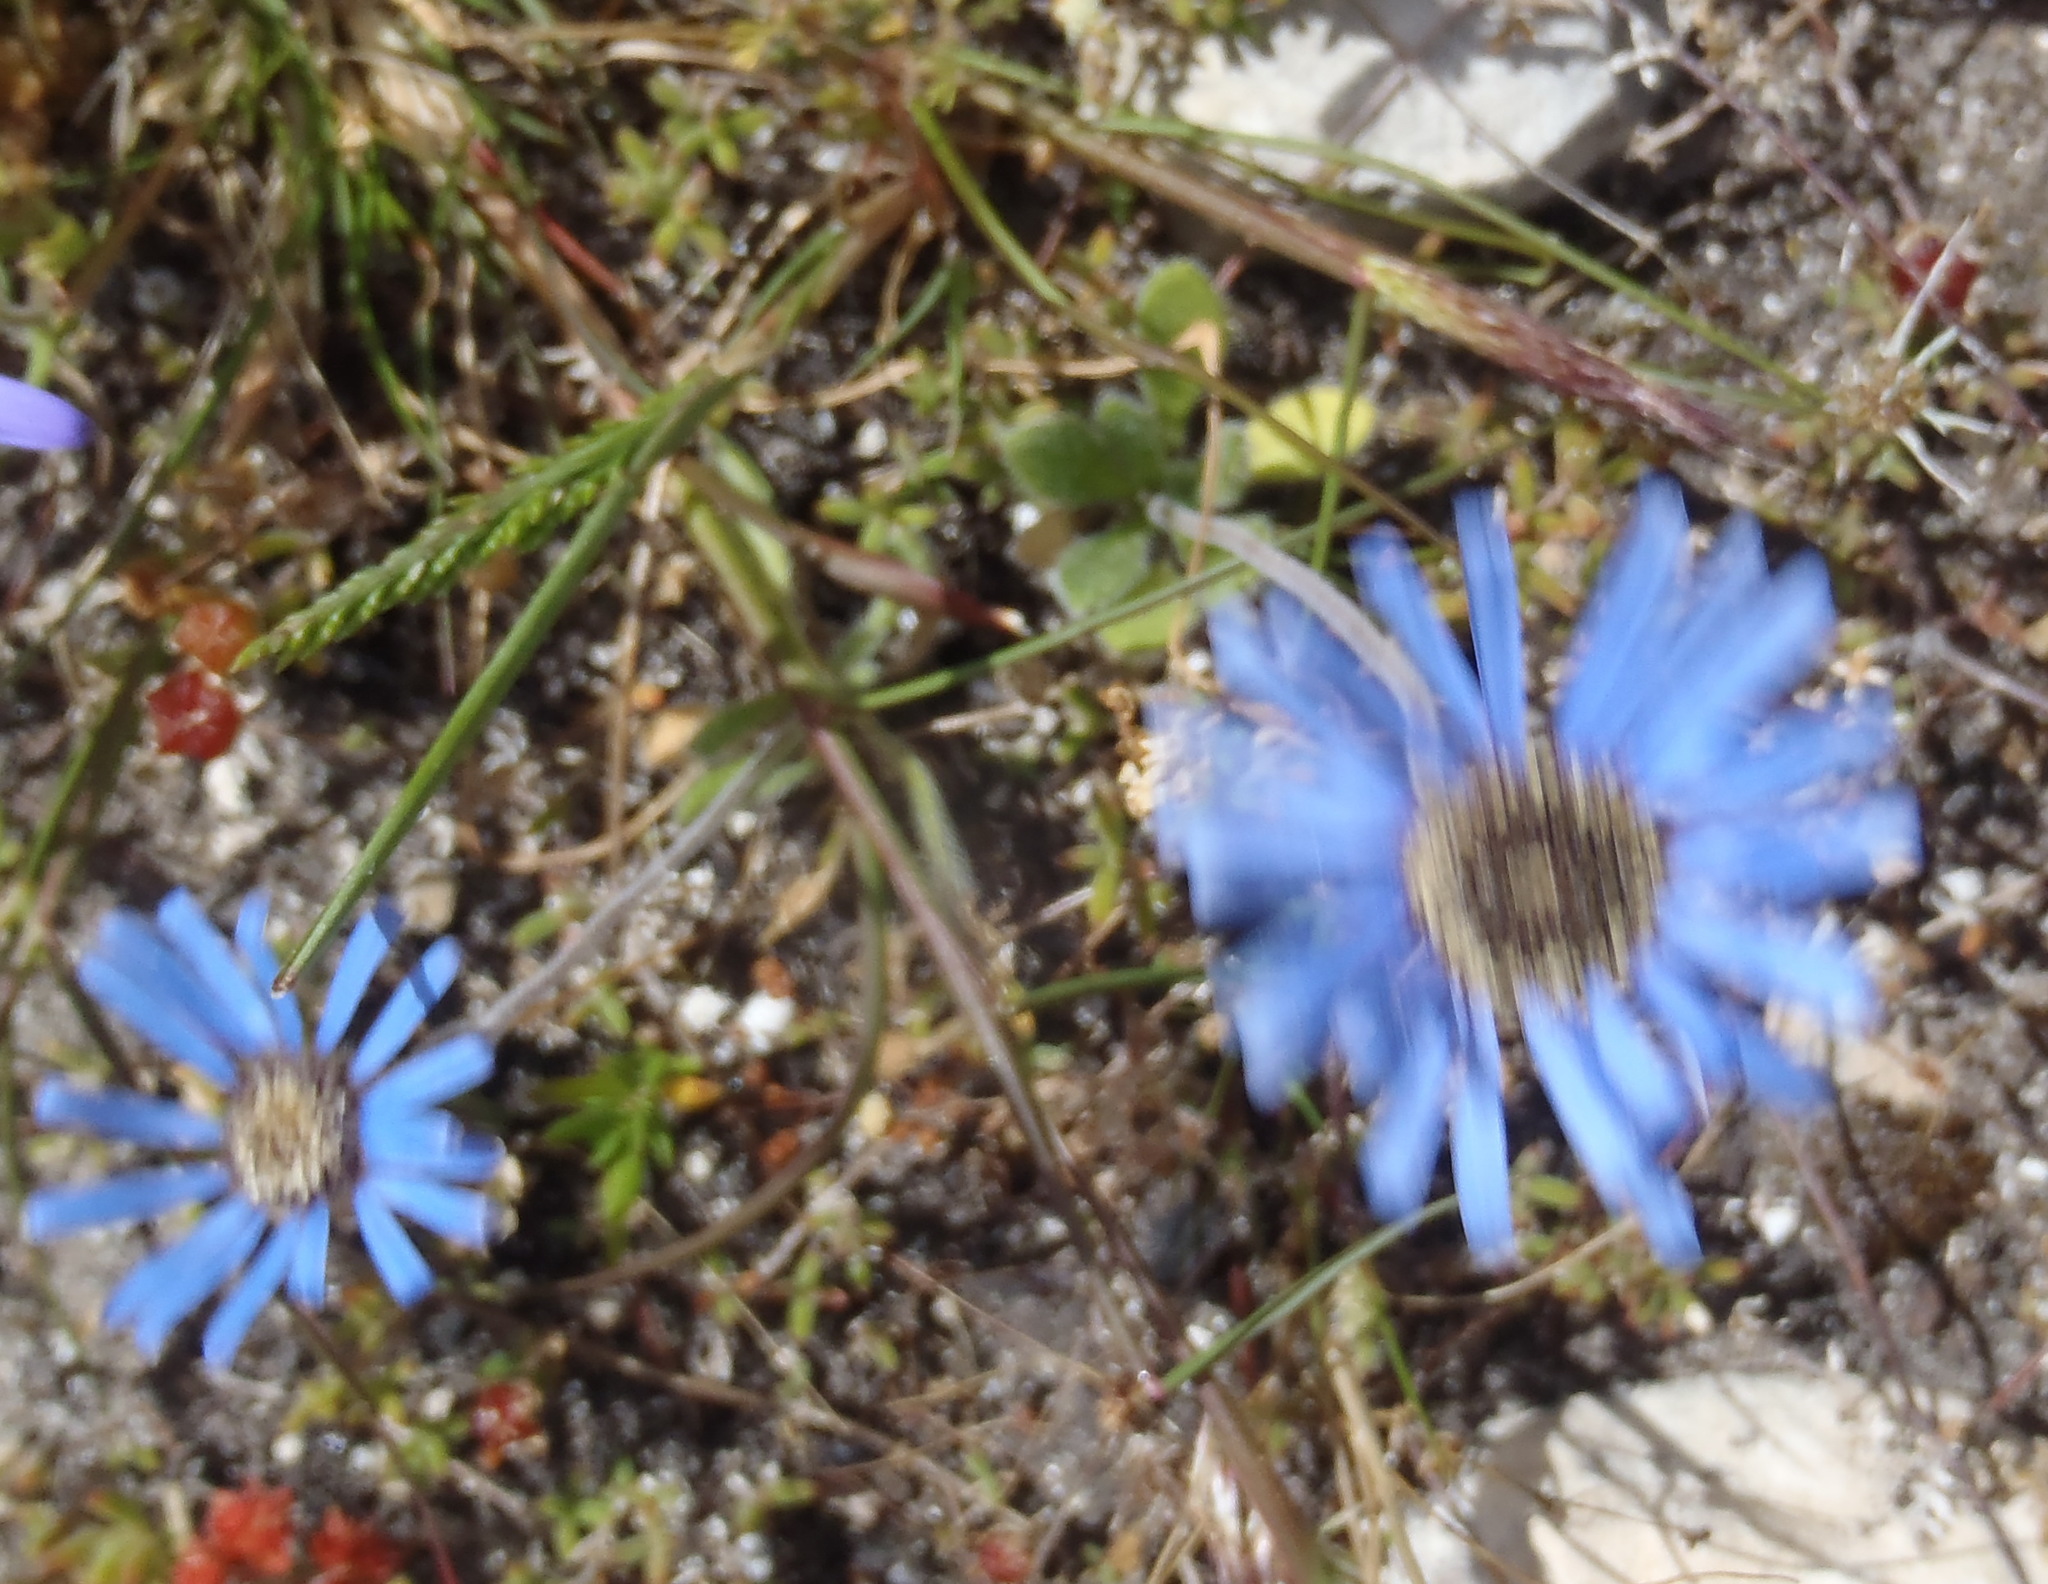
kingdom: Plantae
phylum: Tracheophyta
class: Magnoliopsida
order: Asterales
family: Asteraceae
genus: Felicia
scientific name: Felicia amoena
